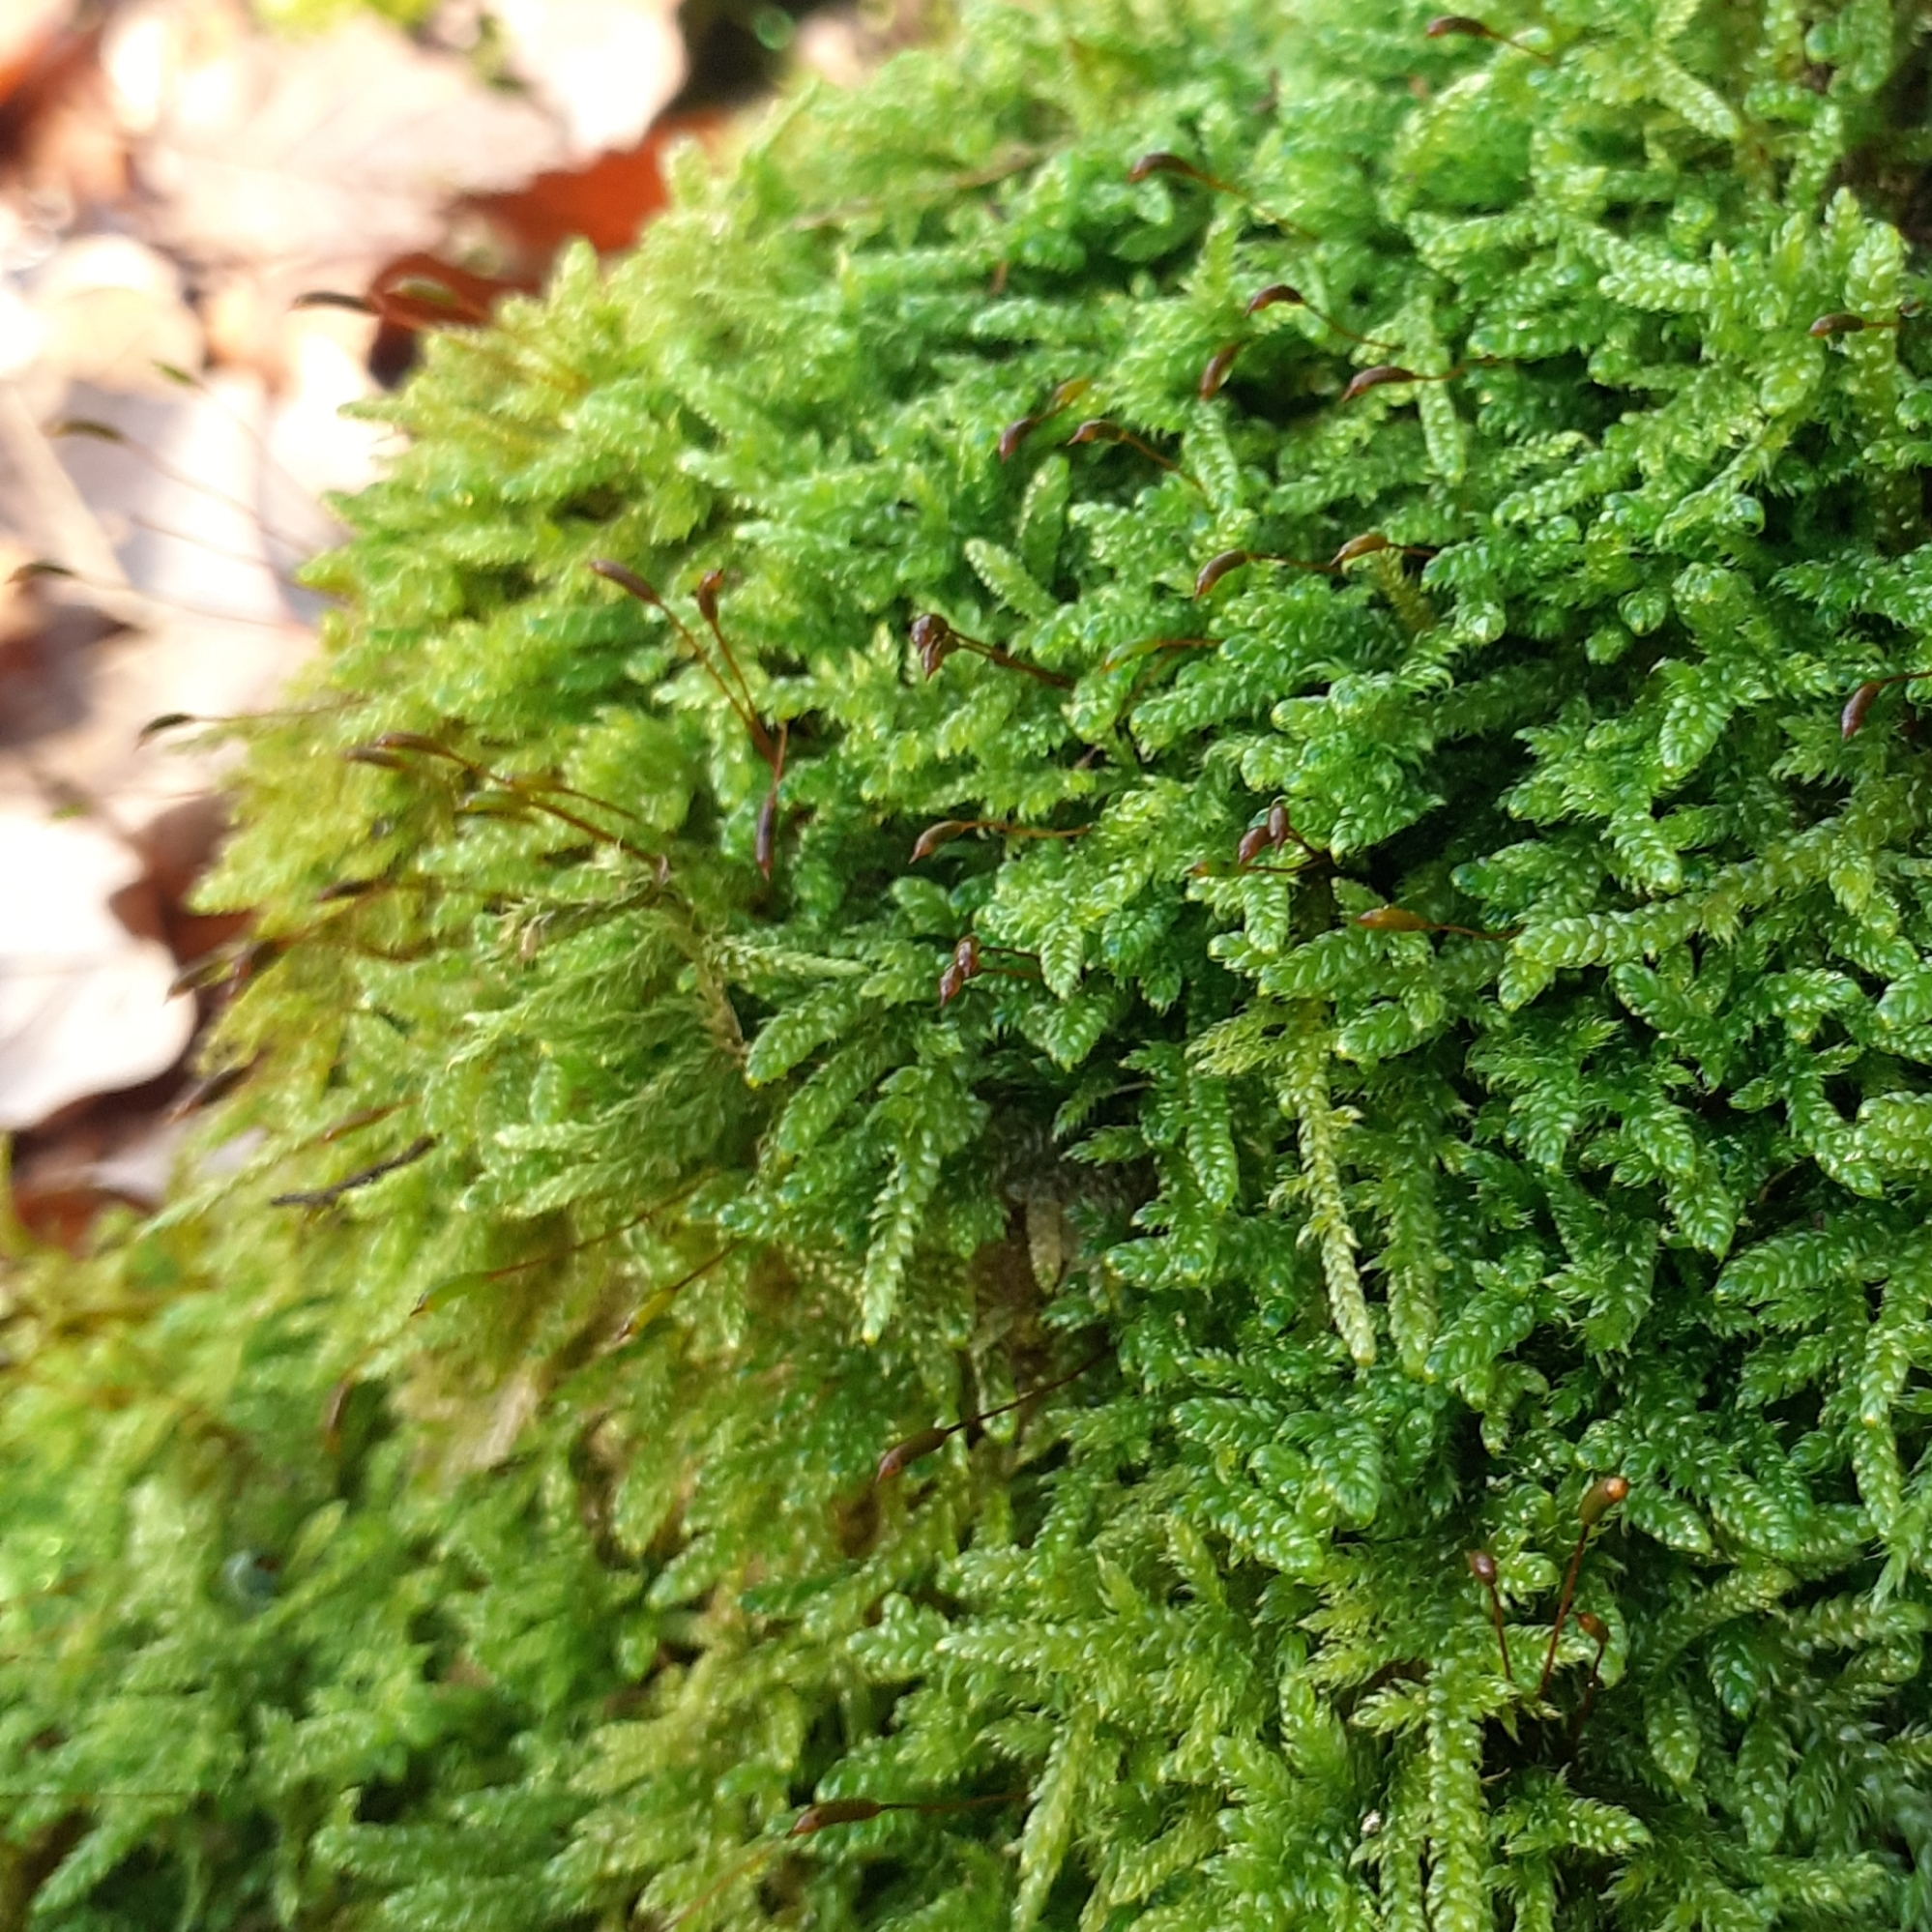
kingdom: Plantae
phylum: Bryophyta
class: Bryopsida
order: Hypnales
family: Hypnaceae
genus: Hypnum
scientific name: Hypnum cupressiforme
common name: Cypress-leaved plait-moss
